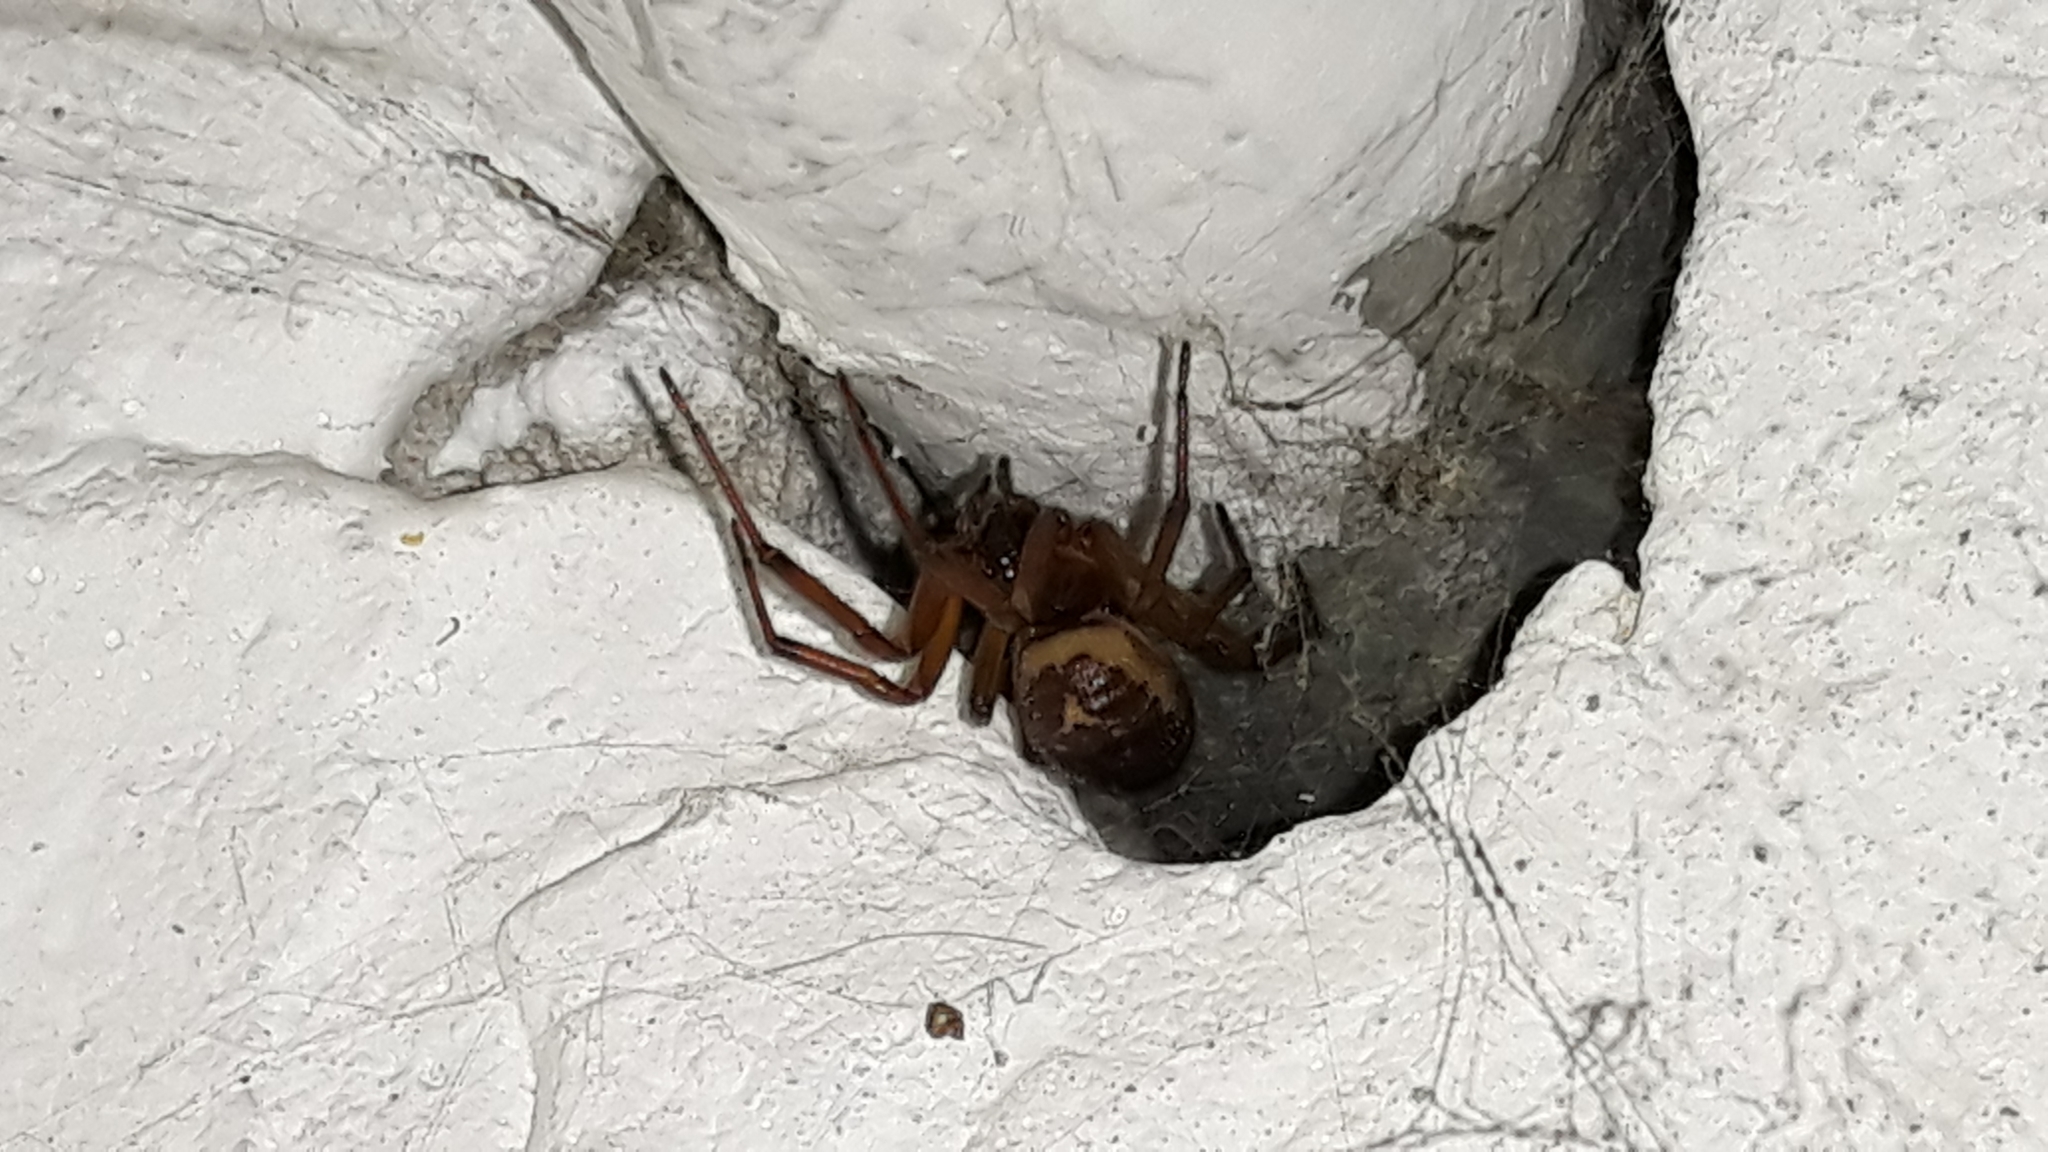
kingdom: Animalia
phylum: Arthropoda
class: Arachnida
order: Araneae
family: Theridiidae
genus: Steatoda
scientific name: Steatoda nobilis
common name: Cobweb weaver
